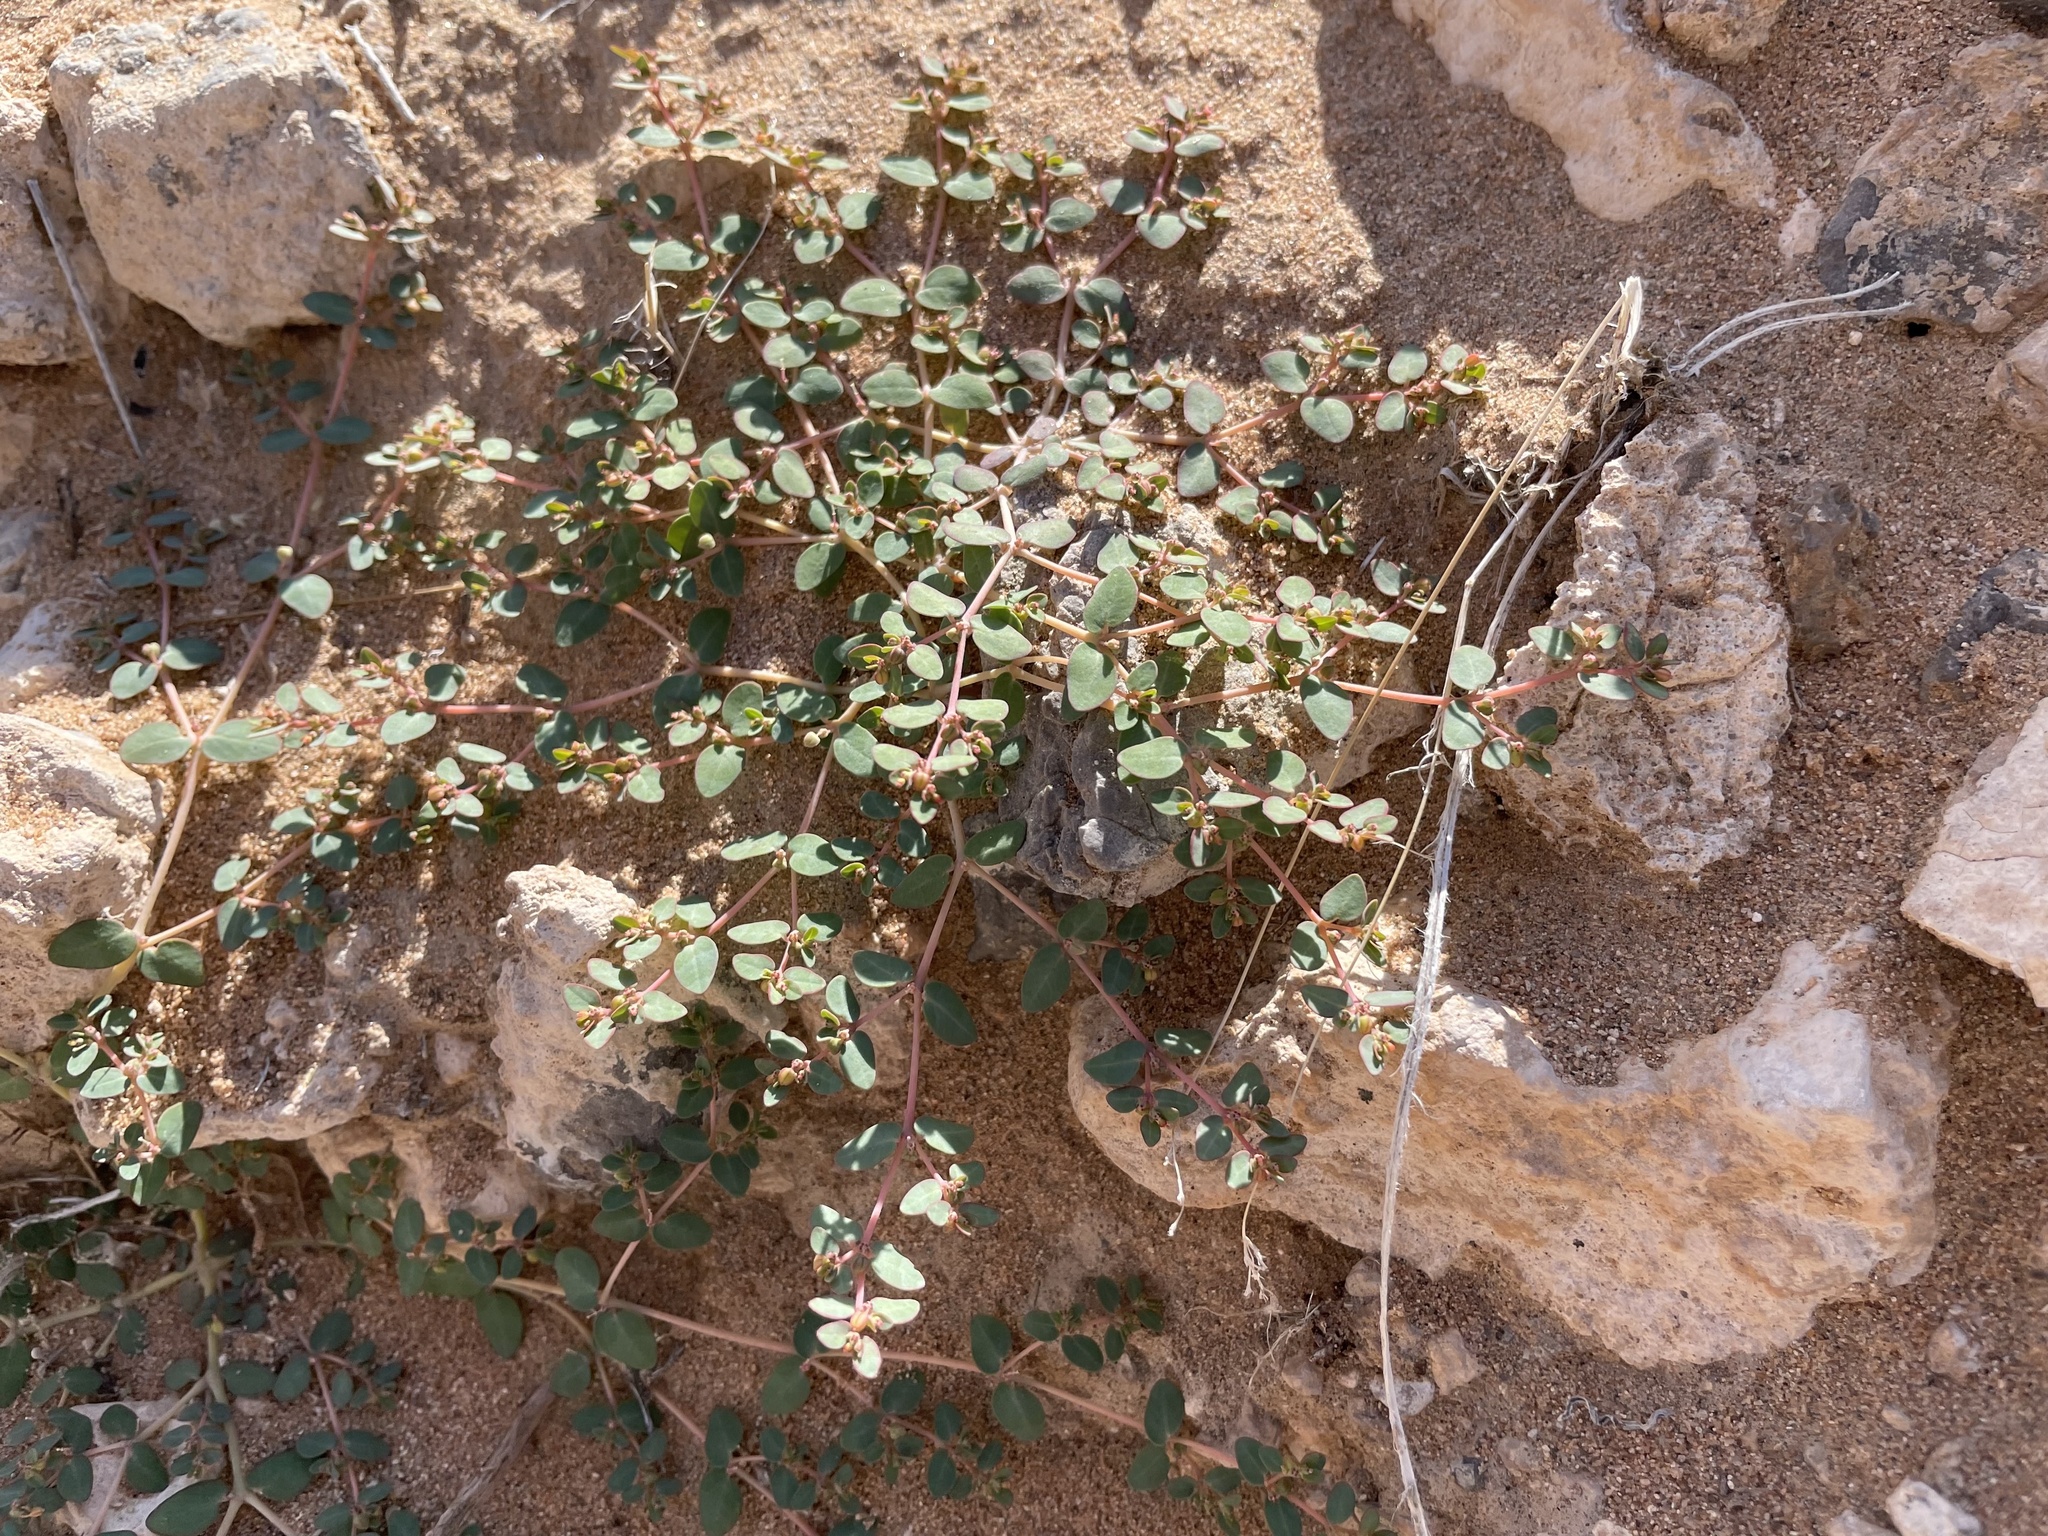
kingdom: Plantae
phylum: Tracheophyta
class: Magnoliopsida
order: Malpighiales
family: Euphorbiaceae
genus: Euphorbia
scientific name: Euphorbia micromera
